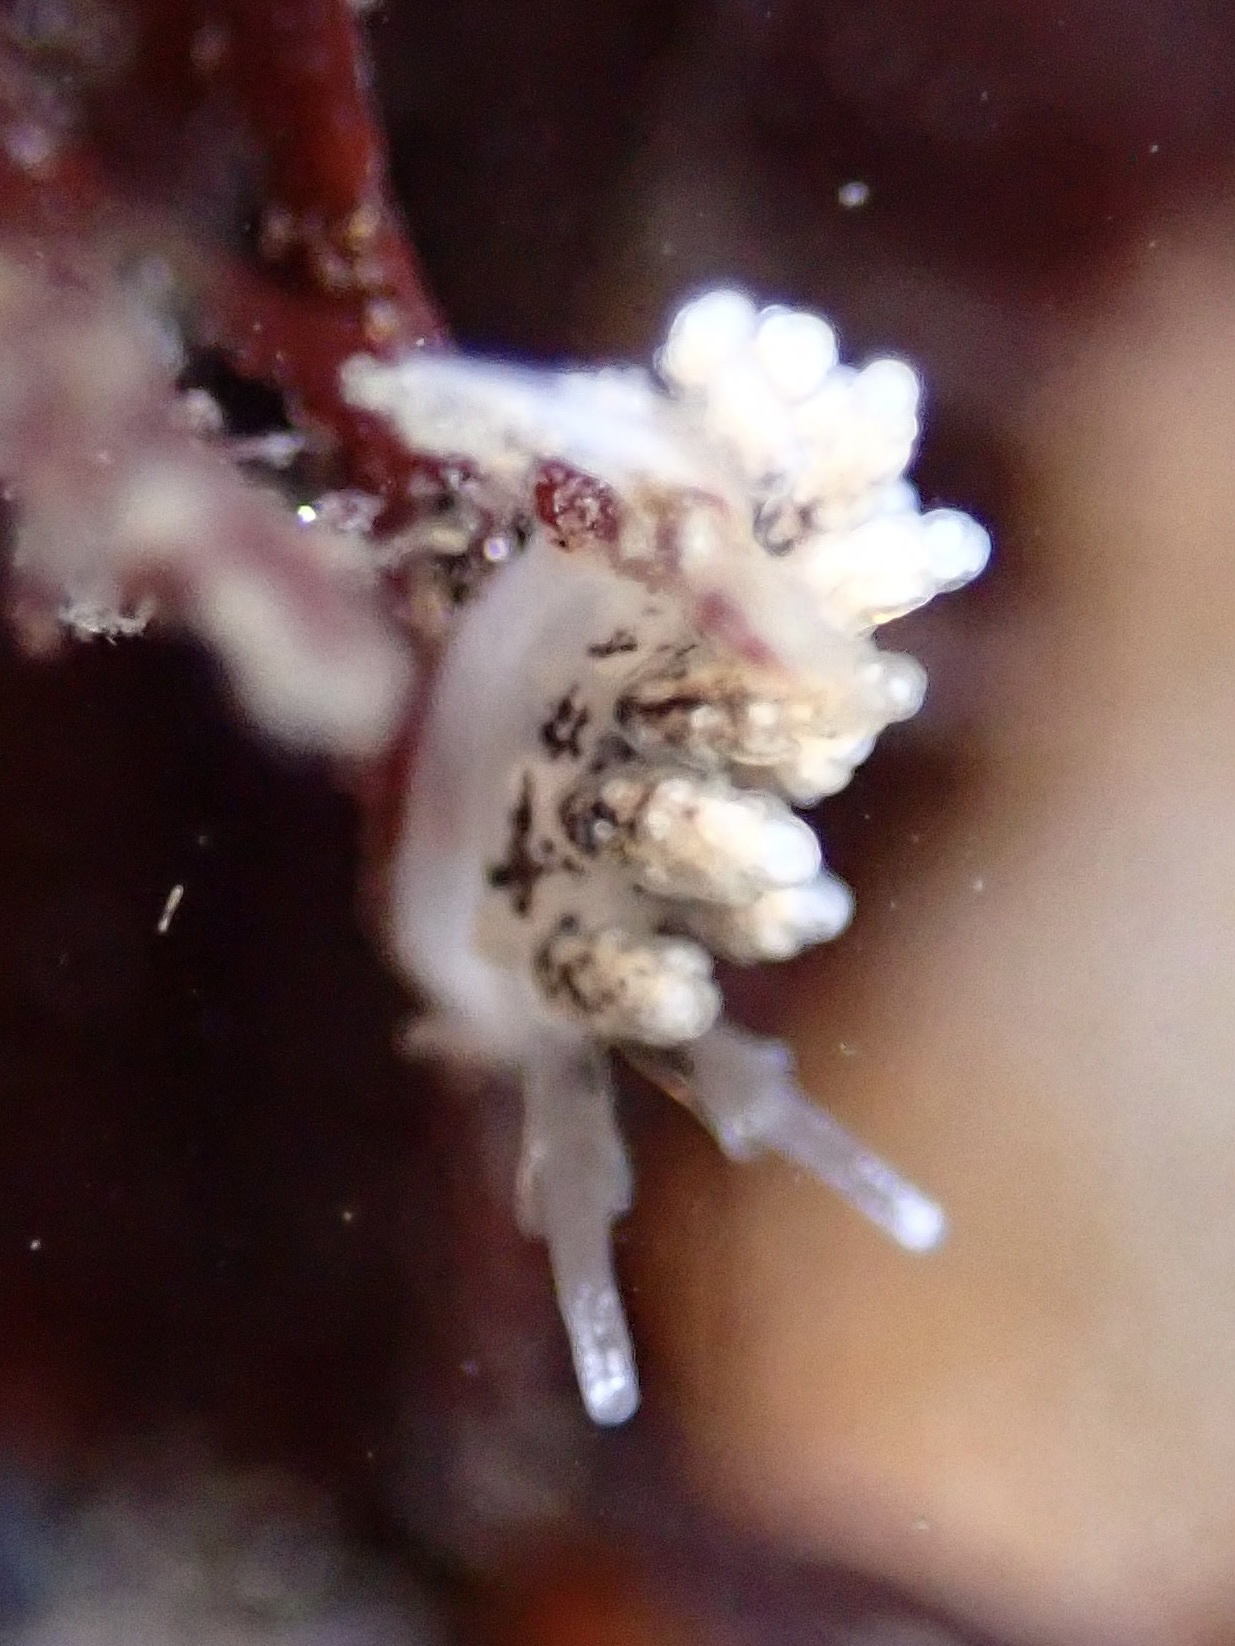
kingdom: Animalia
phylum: Mollusca
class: Gastropoda
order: Nudibranchia
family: Dotidae
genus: Doto
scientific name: Doto kya
